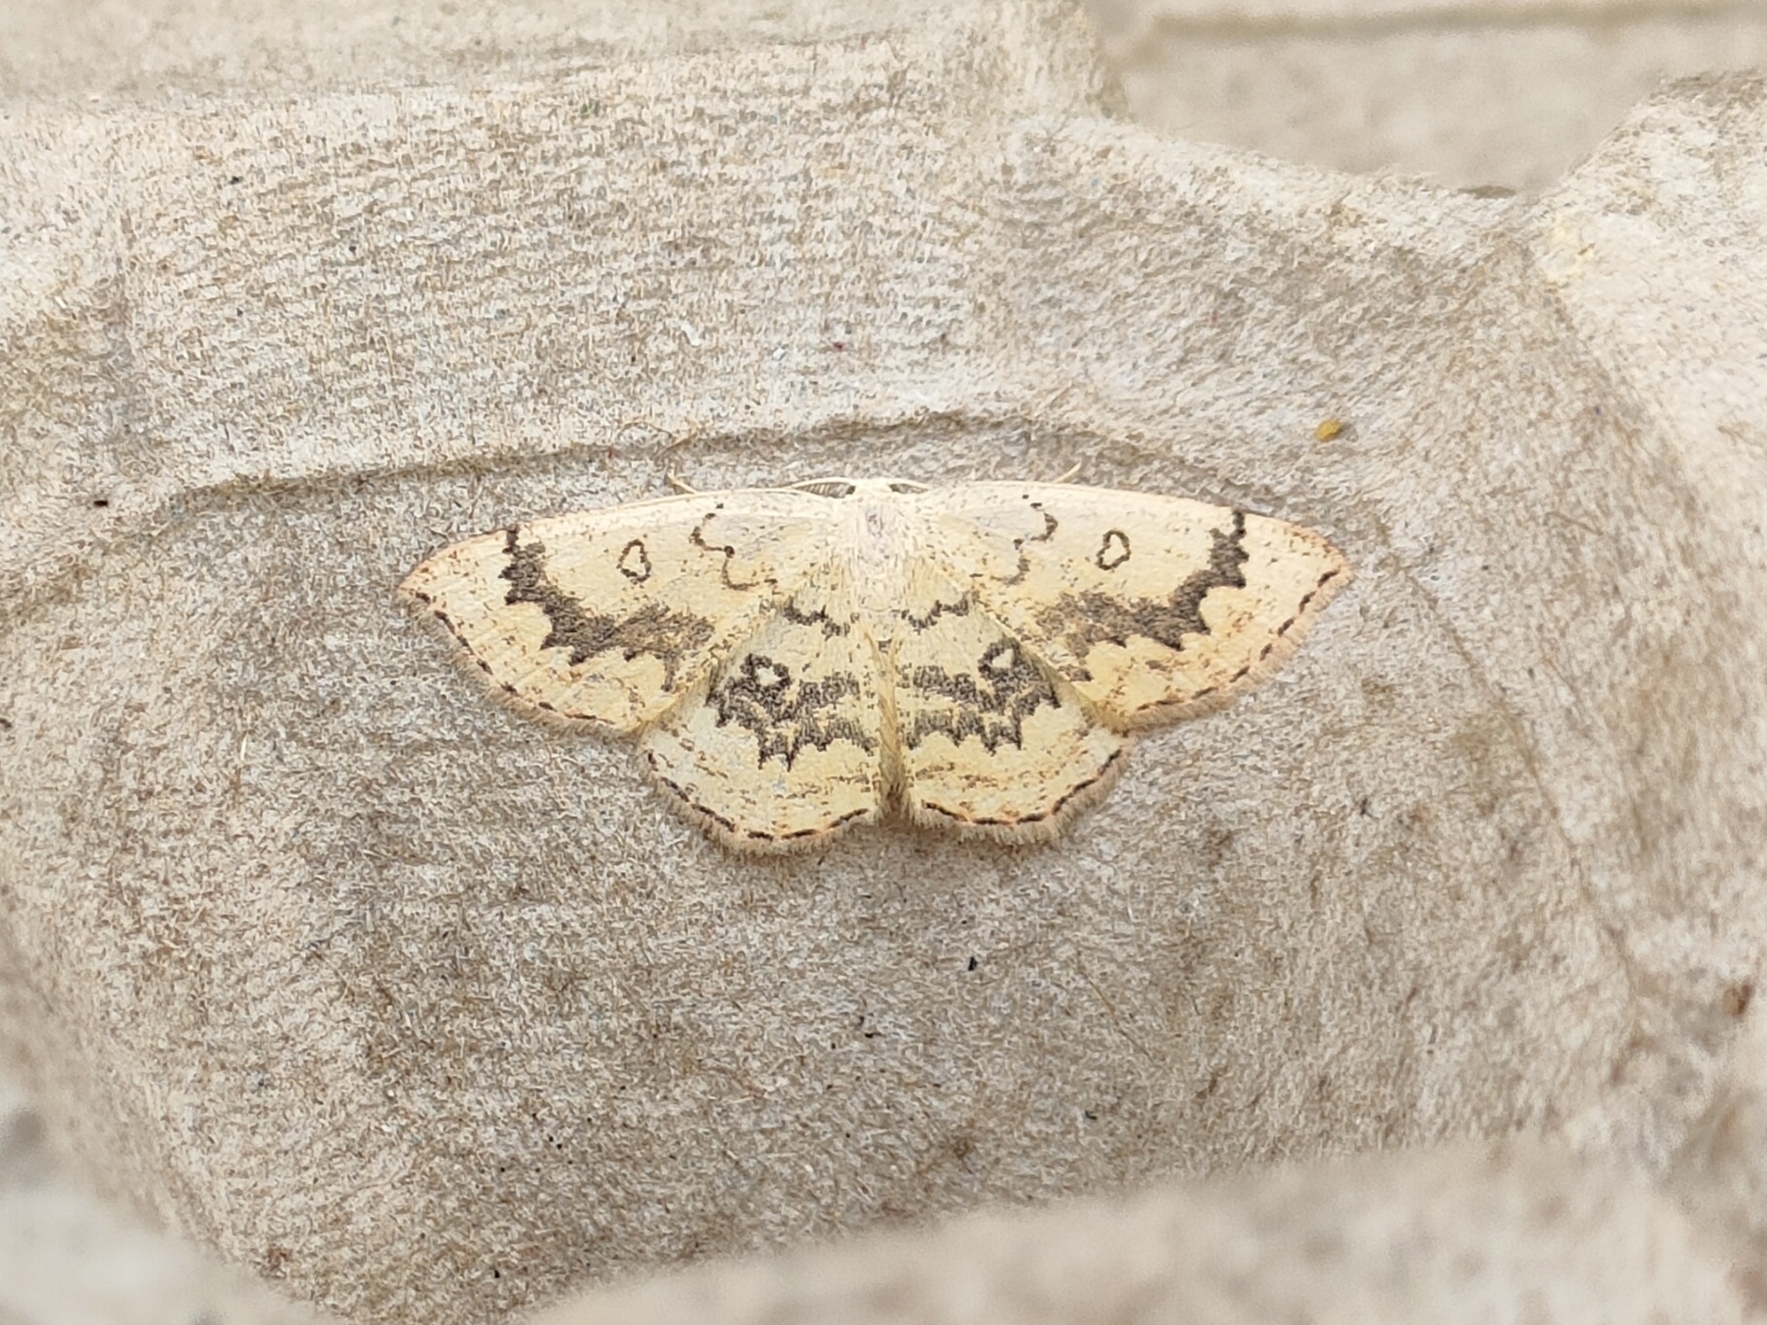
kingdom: Animalia
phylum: Arthropoda
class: Insecta
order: Lepidoptera
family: Geometridae
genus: Cyclophora
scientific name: Cyclophora annularia
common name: Mocha
